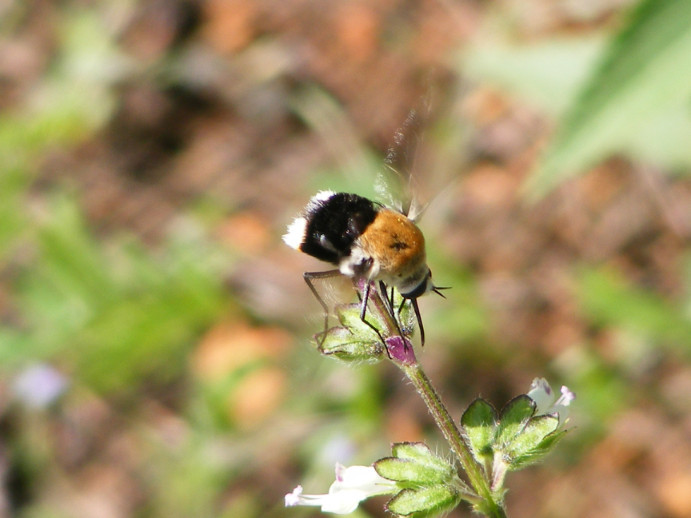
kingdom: Animalia
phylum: Arthropoda
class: Insecta
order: Diptera
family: Bombyliidae
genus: Bombomyia
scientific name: Bombomyia discoidea
